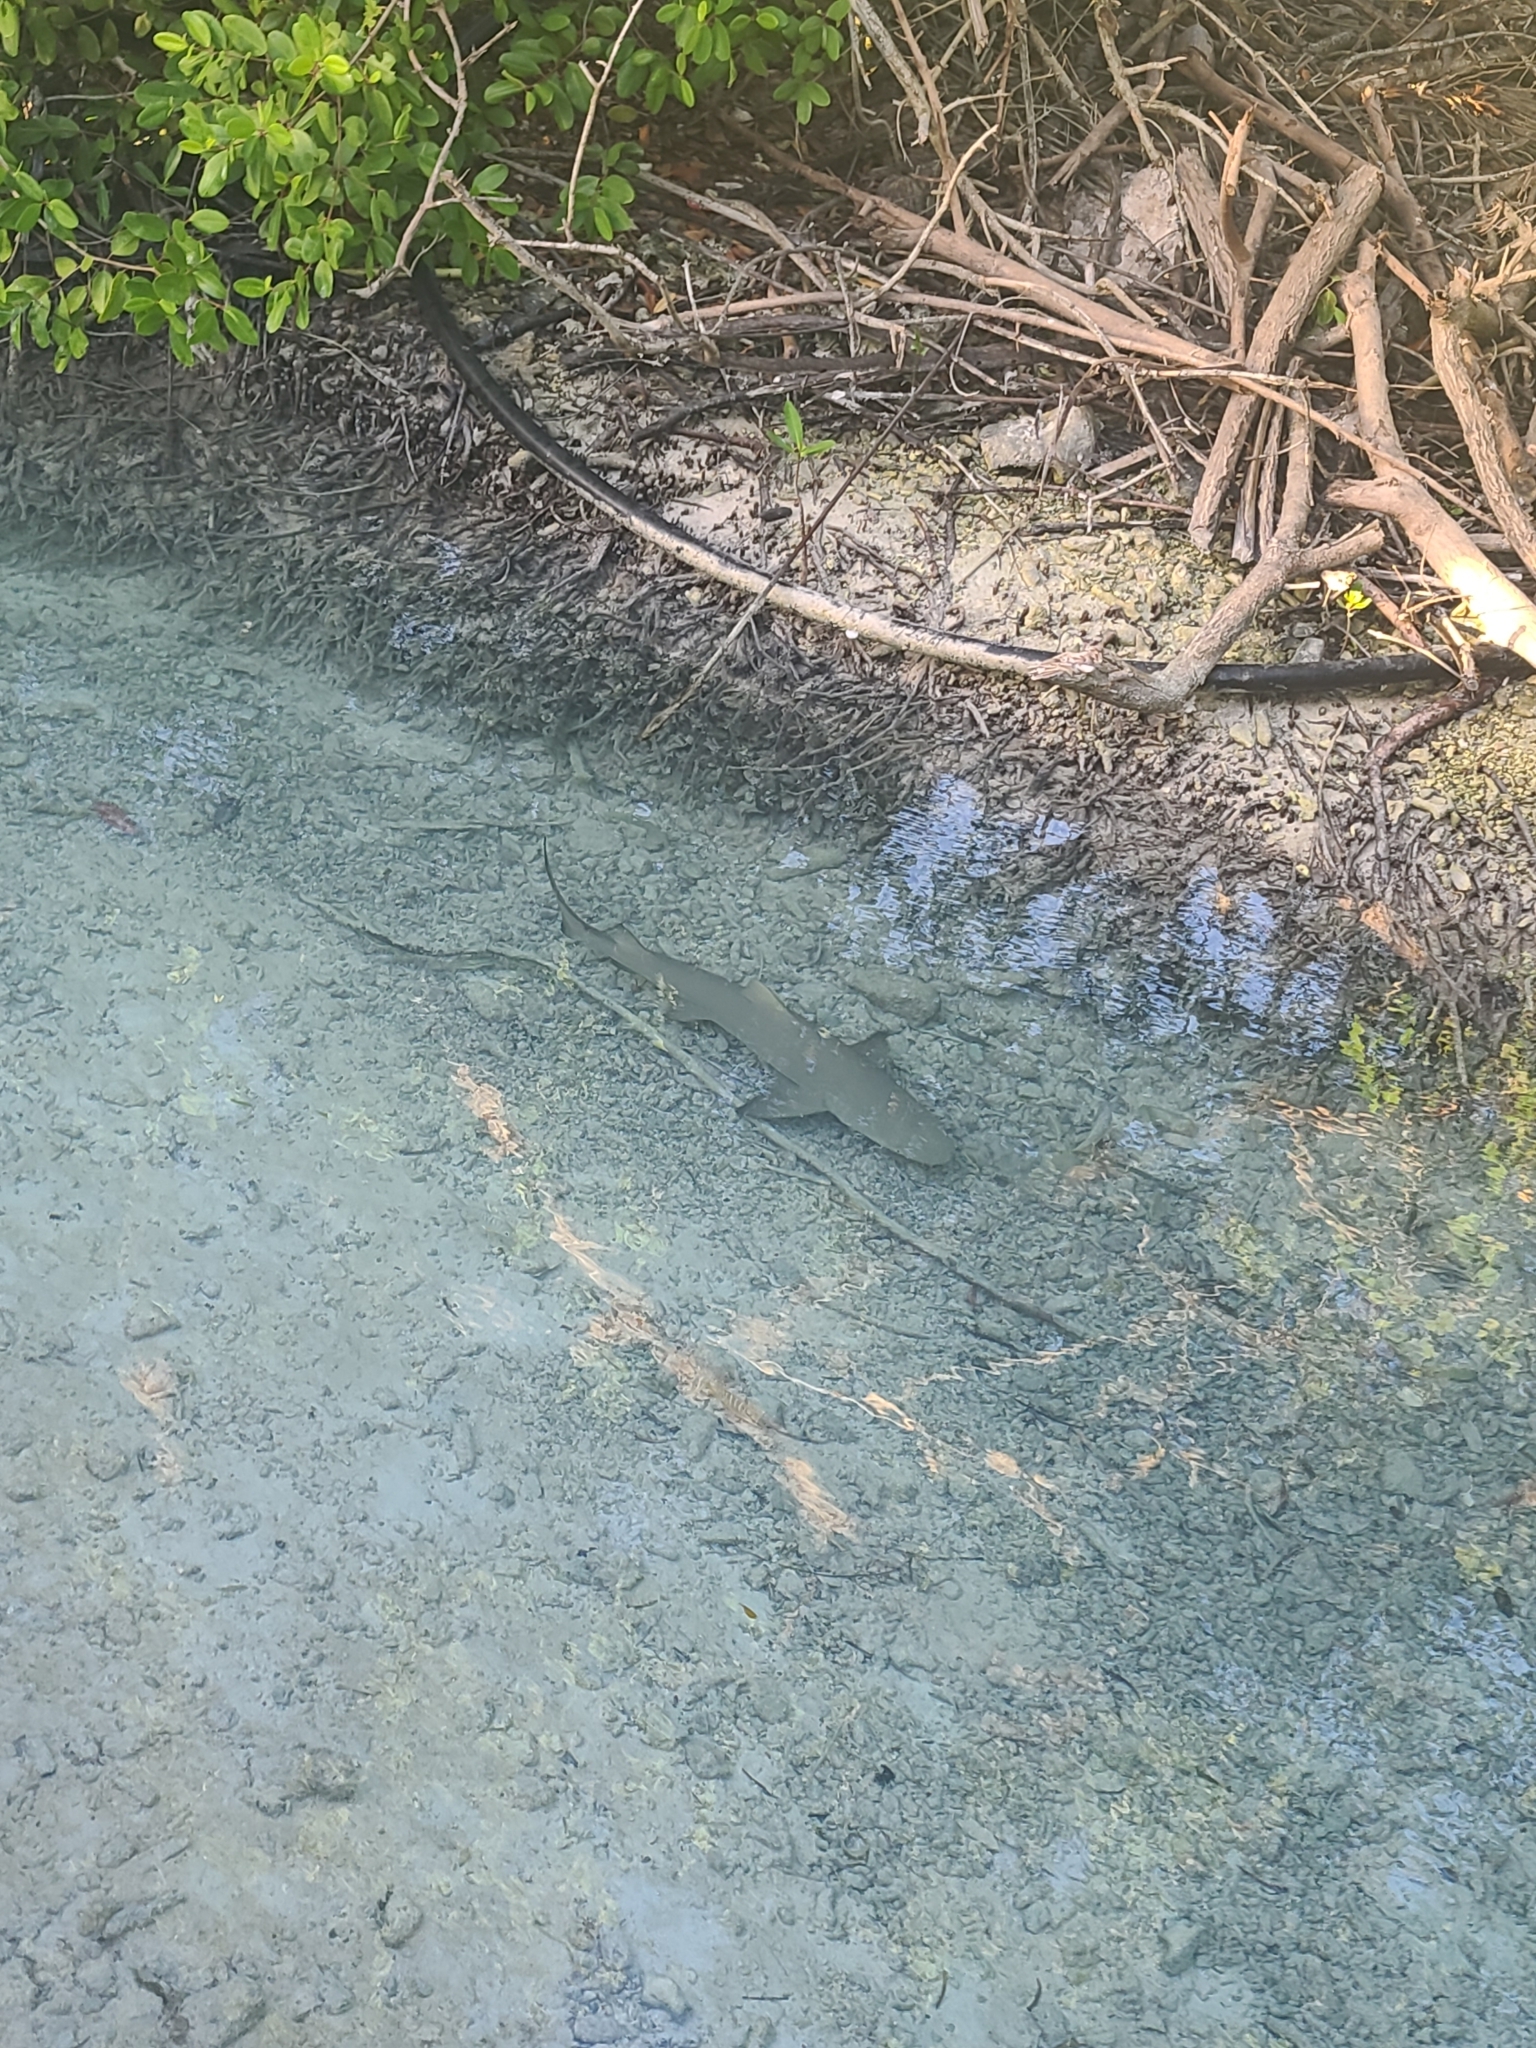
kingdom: Animalia
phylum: Chordata
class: Elasmobranchii
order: Carcharhiniformes
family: Carcharhinidae
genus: Negaprion
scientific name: Negaprion brevirostris
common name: Lemon shark
